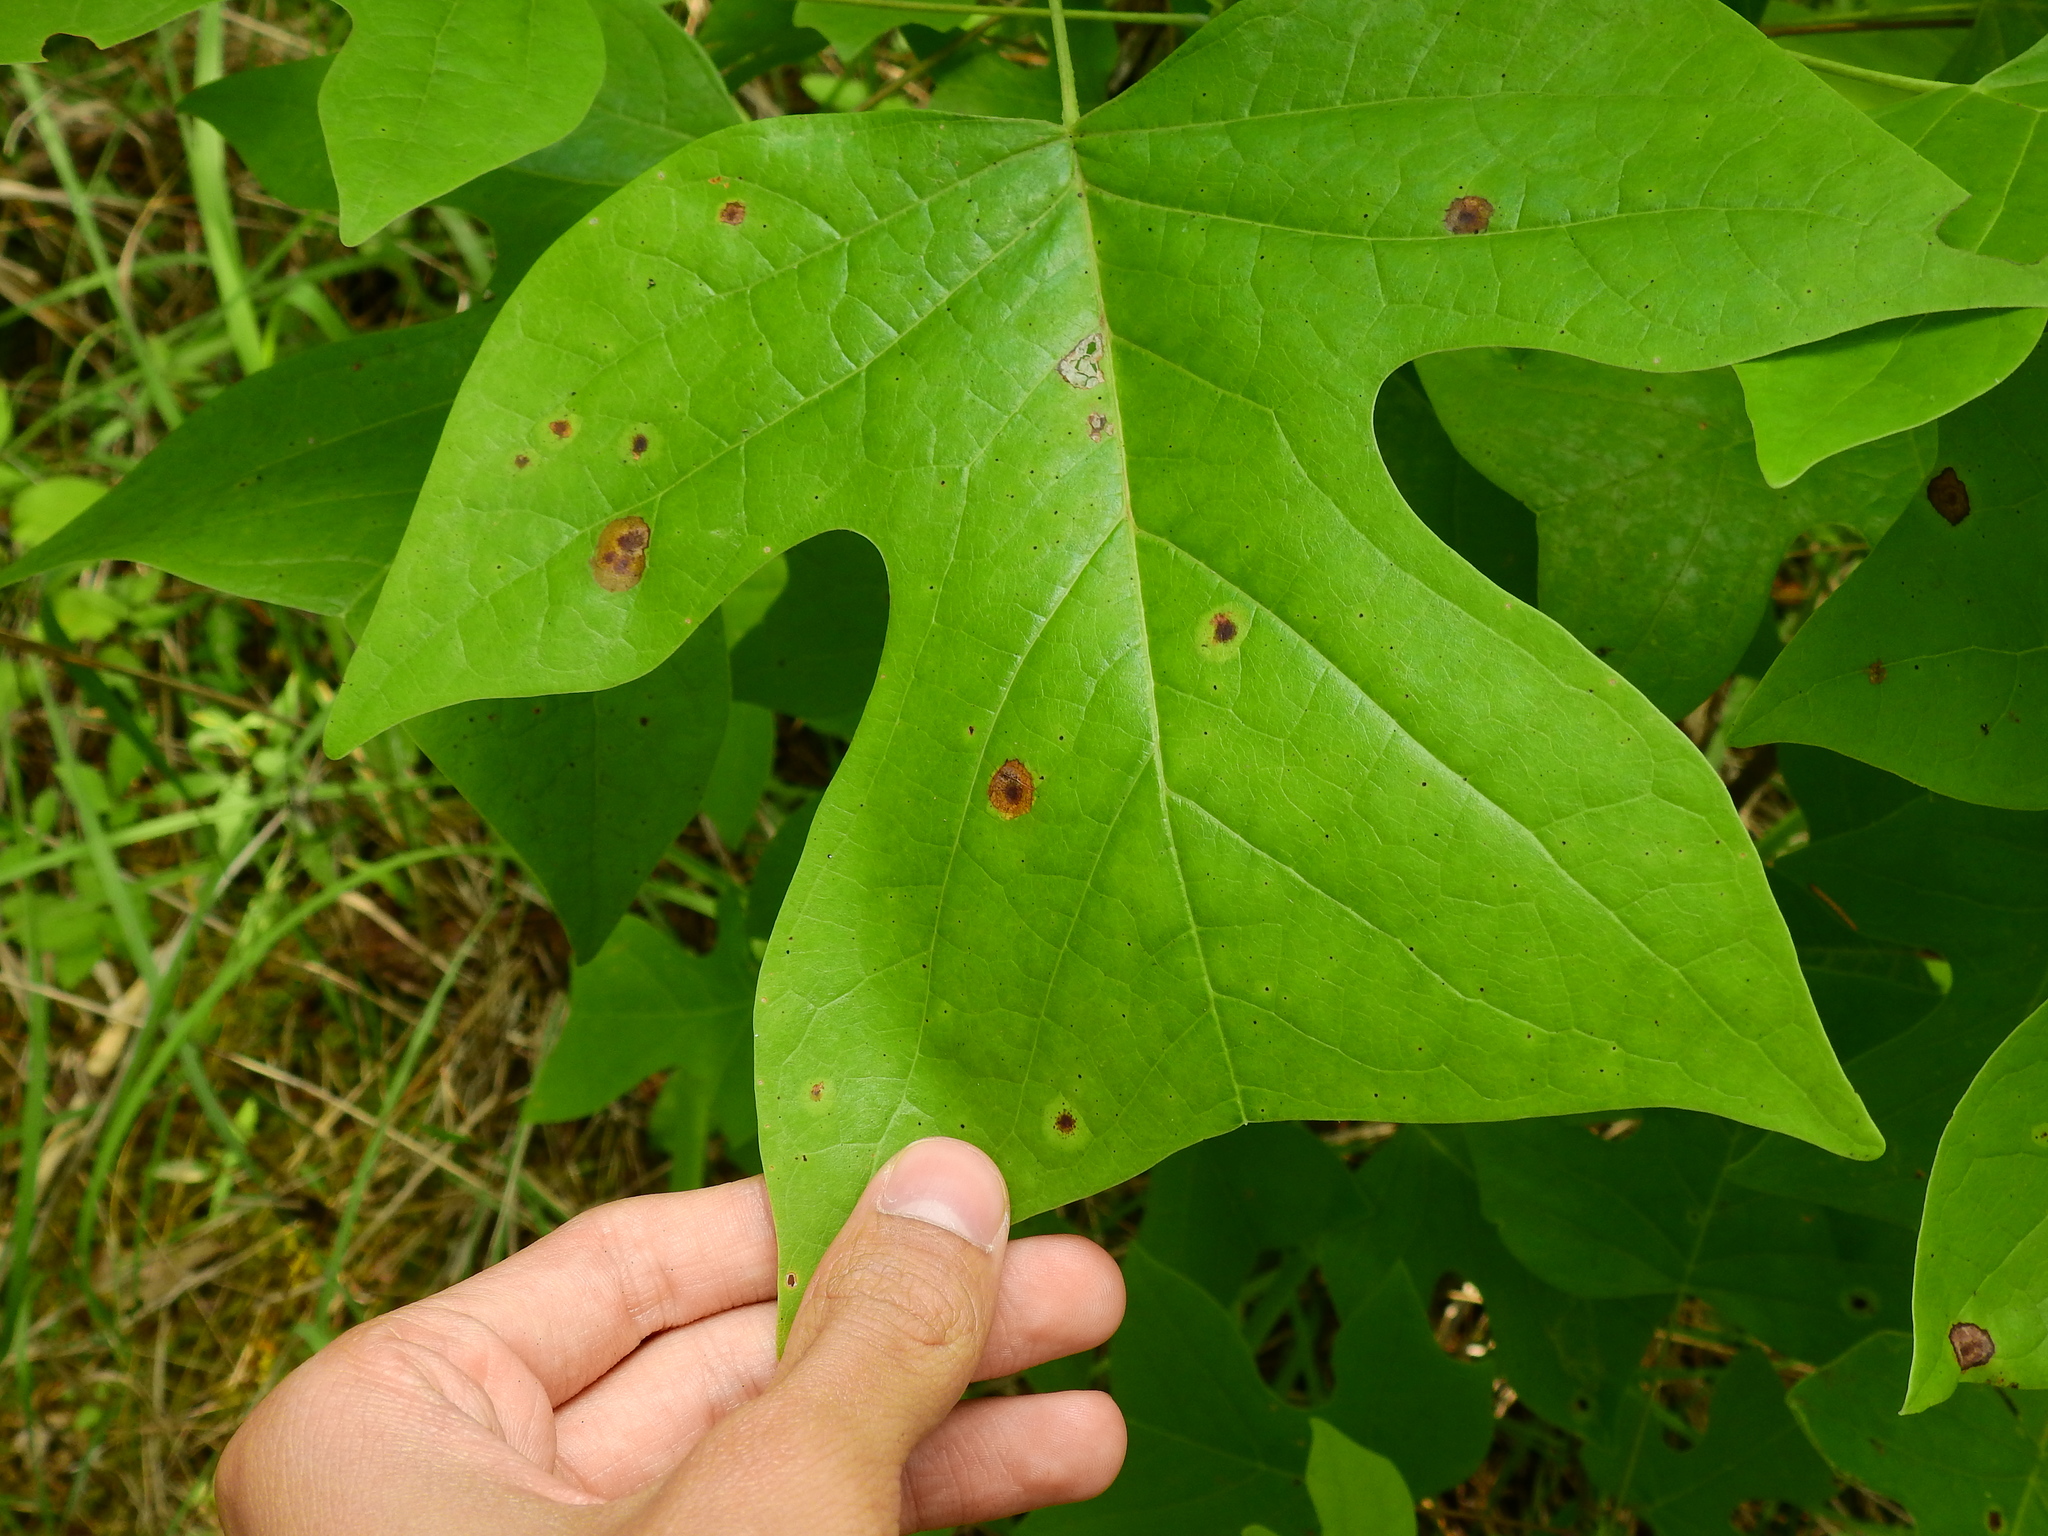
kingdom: Plantae
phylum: Tracheophyta
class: Magnoliopsida
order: Magnoliales
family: Magnoliaceae
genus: Liriodendron
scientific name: Liriodendron tulipifera
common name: Tulip tree
